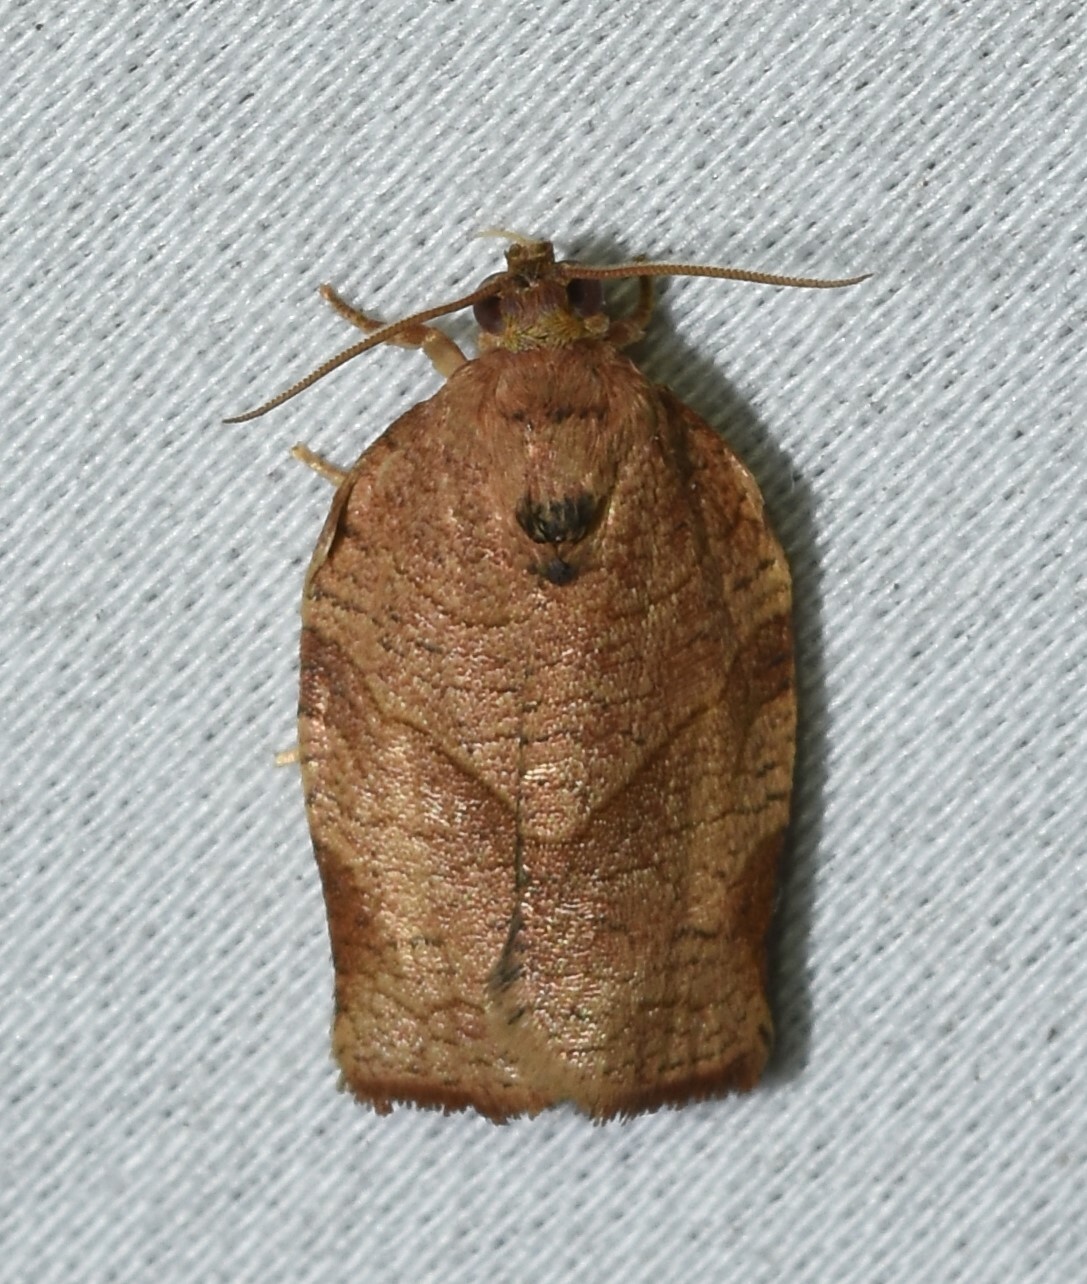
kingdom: Animalia
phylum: Arthropoda
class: Insecta
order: Lepidoptera
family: Tortricidae
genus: Choristoneura
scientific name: Choristoneura rosaceana
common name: Oblique-banded leafroller moth
